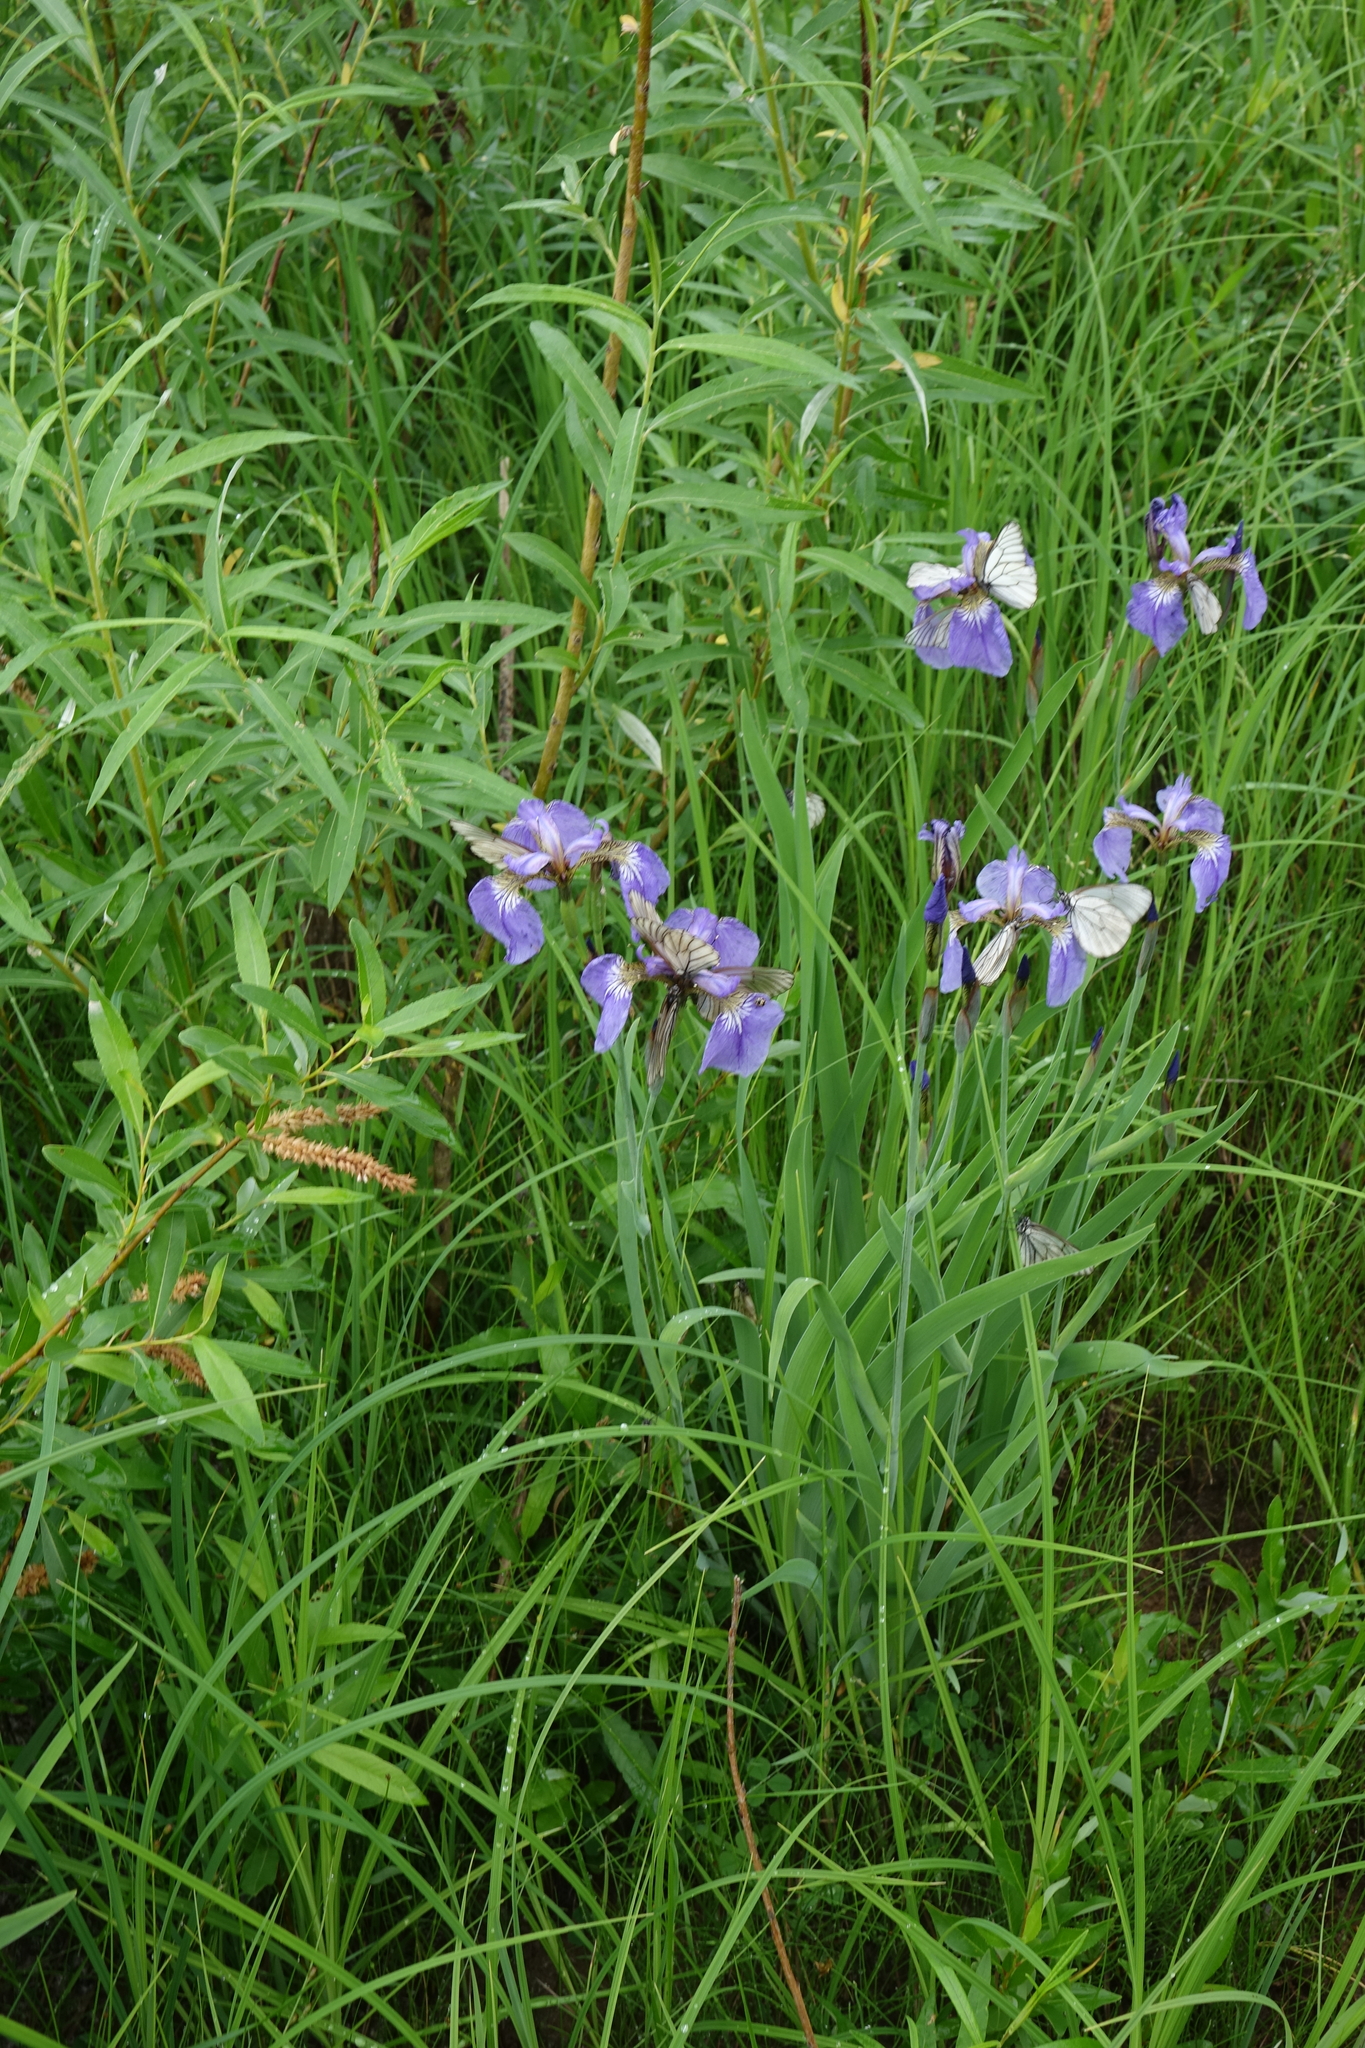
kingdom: Plantae
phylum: Tracheophyta
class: Liliopsida
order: Asparagales
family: Iridaceae
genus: Iris
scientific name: Iris setosa
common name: Arctic blue flag
